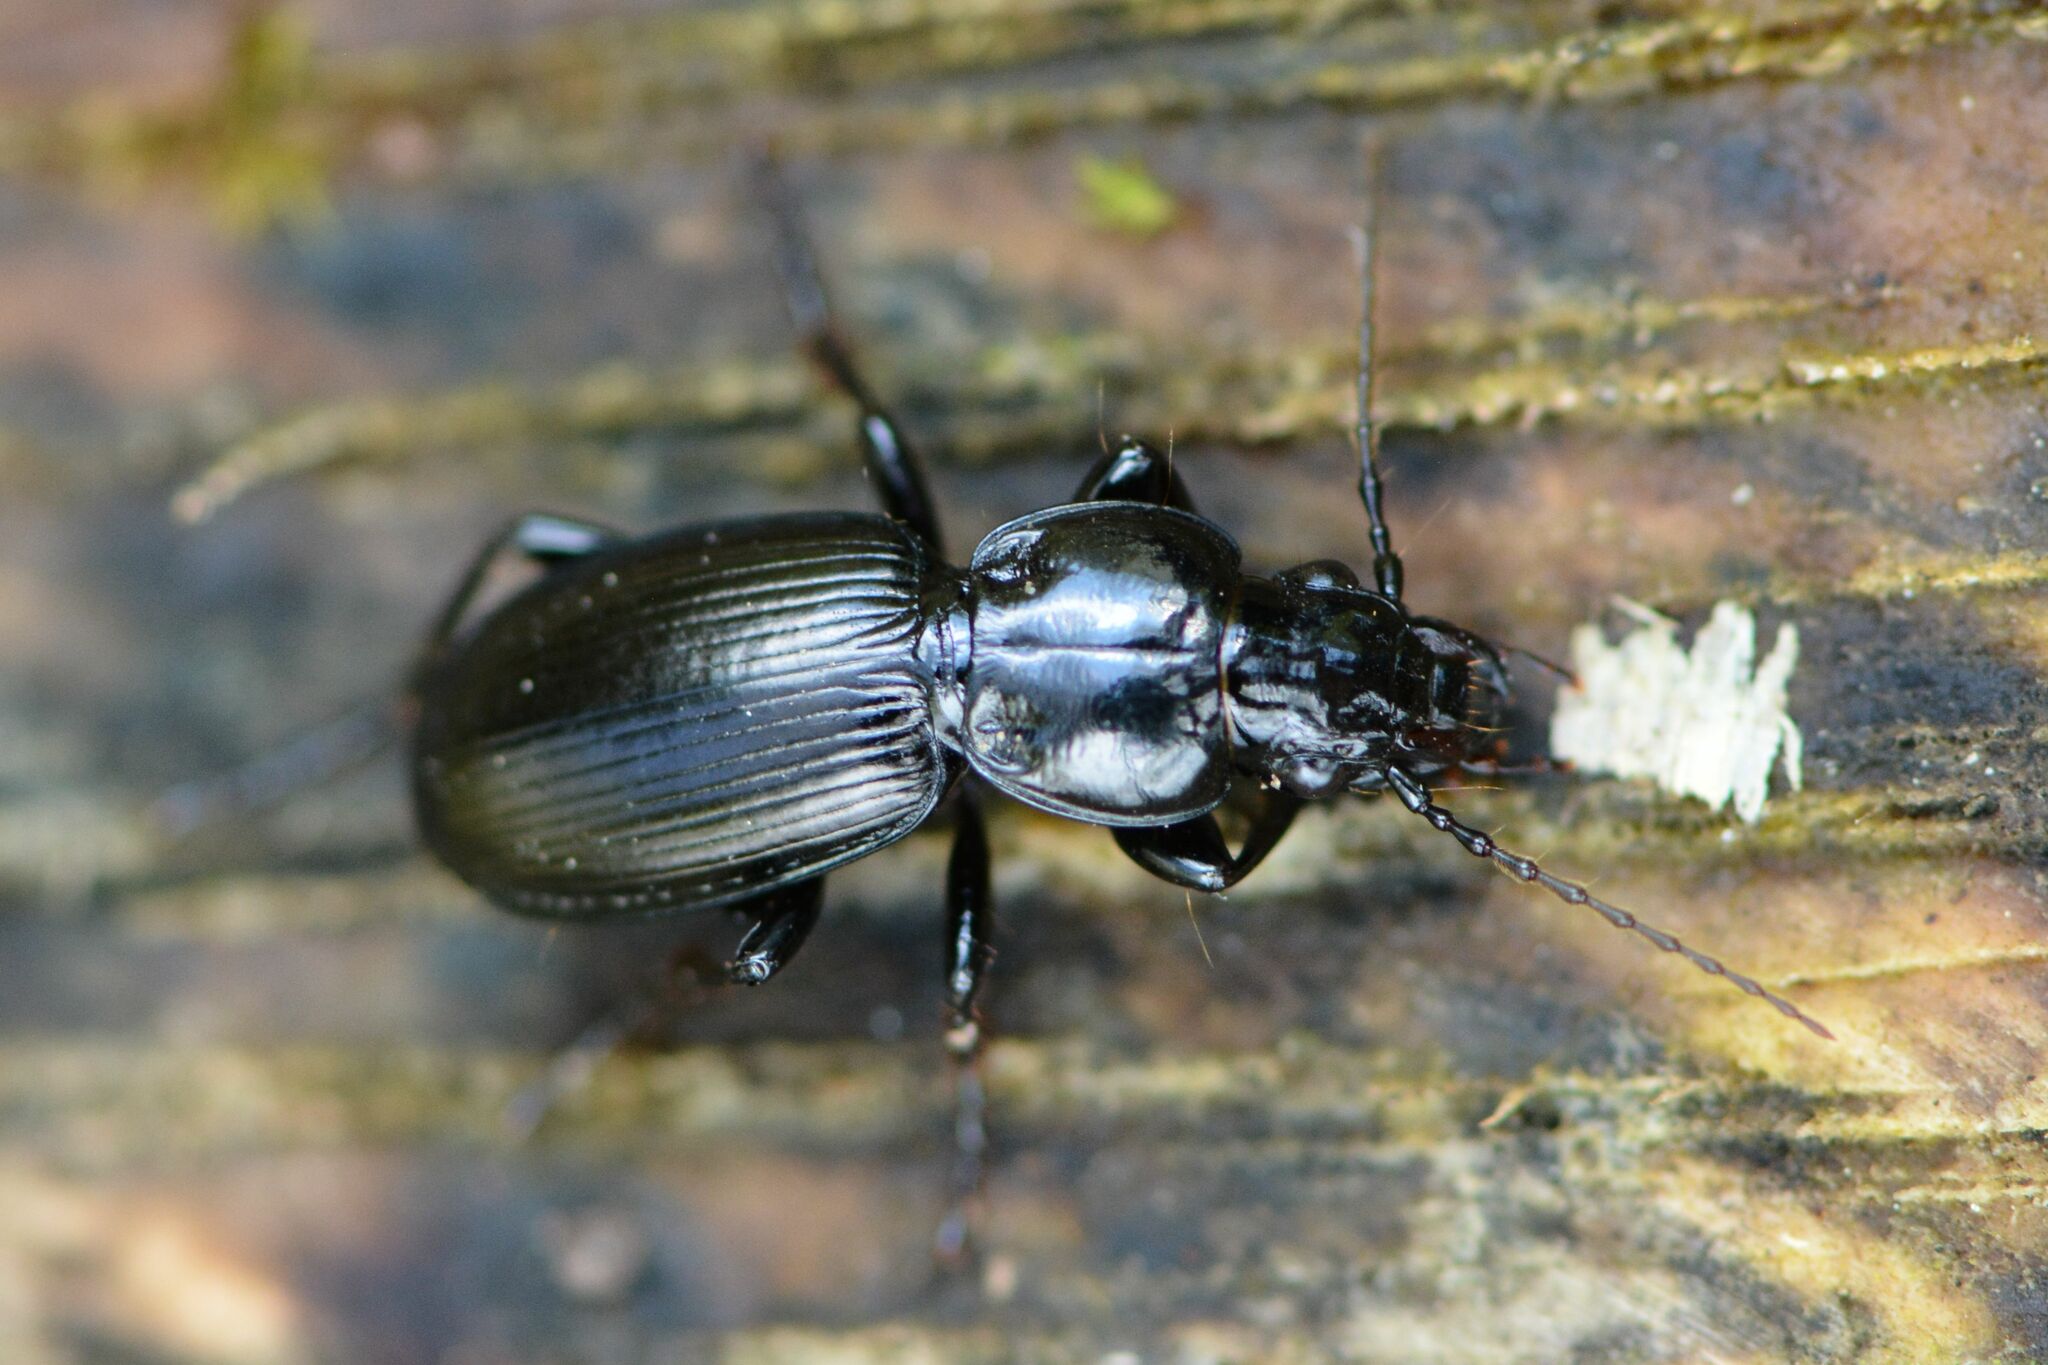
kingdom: Animalia
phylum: Arthropoda
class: Insecta
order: Coleoptera
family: Carabidae
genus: Pterostichus
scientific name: Pterostichus madidus
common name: Black clock
